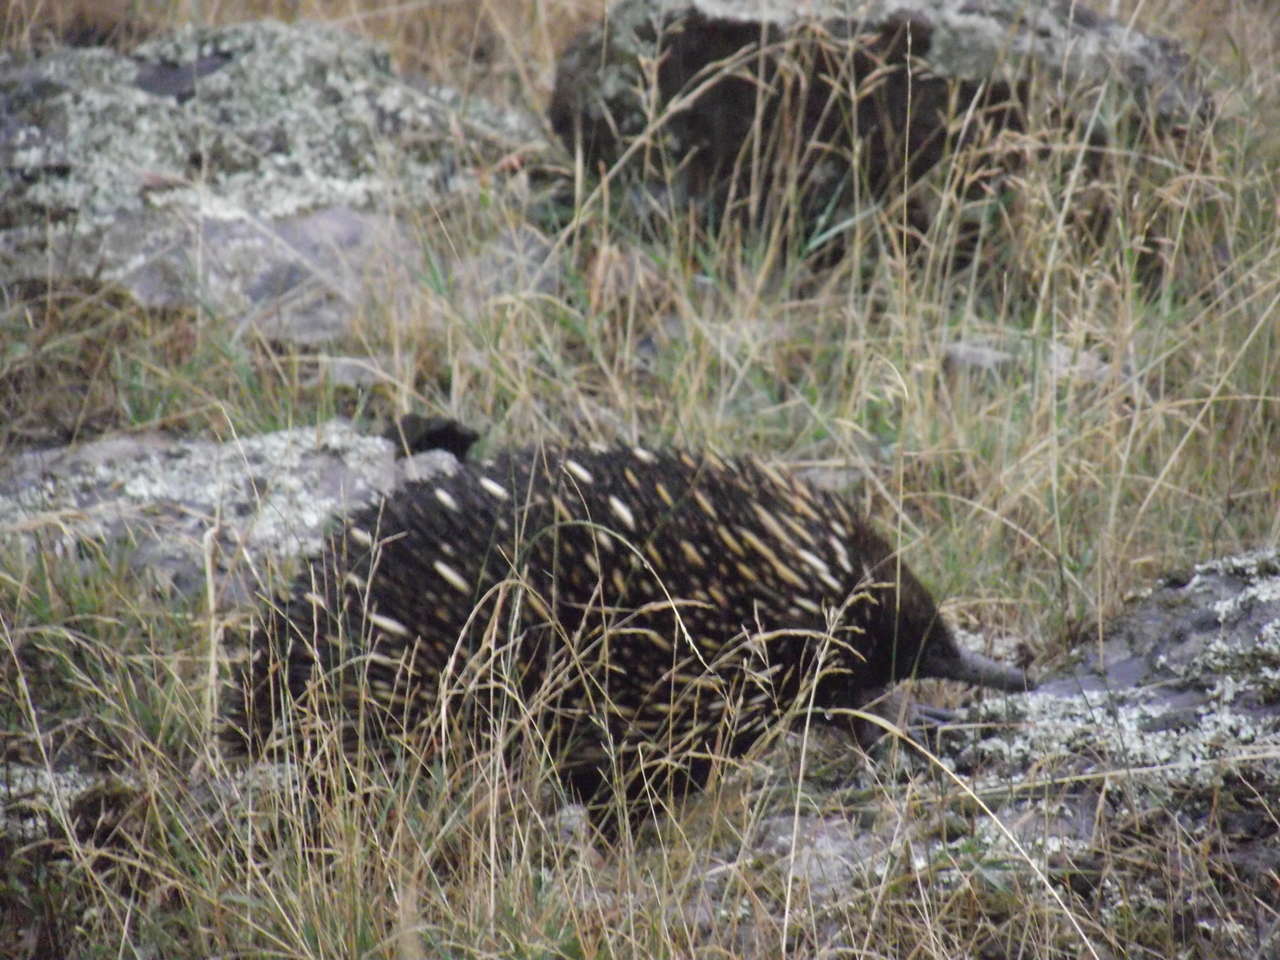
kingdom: Animalia
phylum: Chordata
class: Mammalia
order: Monotremata
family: Tachyglossidae
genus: Tachyglossus
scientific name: Tachyglossus aculeatus
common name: Short-beaked echidna
